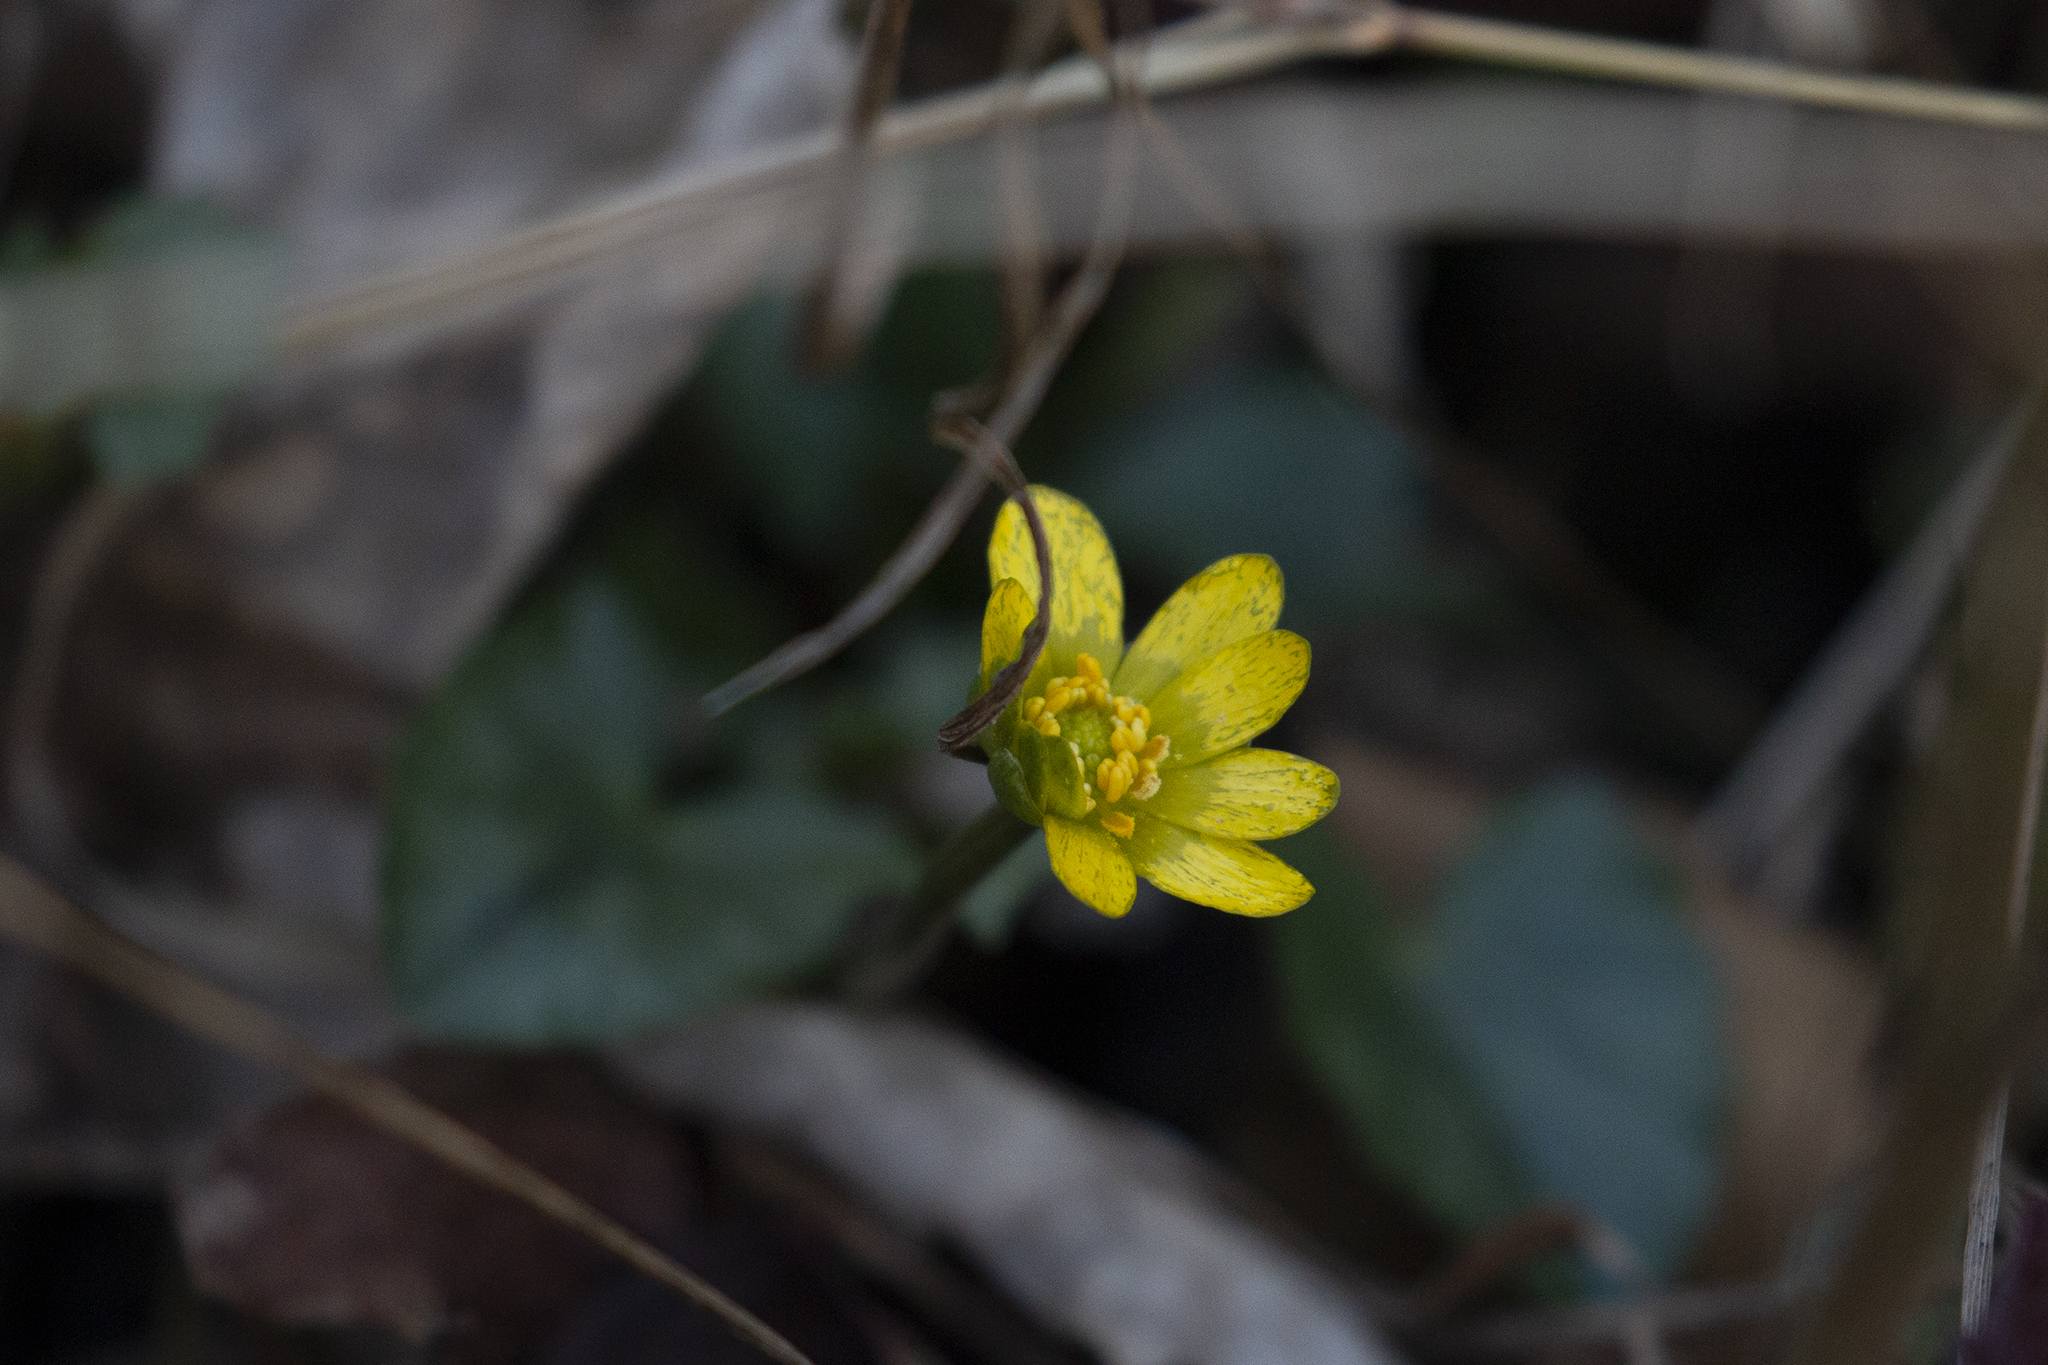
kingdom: Plantae
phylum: Tracheophyta
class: Magnoliopsida
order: Ranunculales
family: Ranunculaceae
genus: Ficaria
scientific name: Ficaria verna
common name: Lesser celandine
